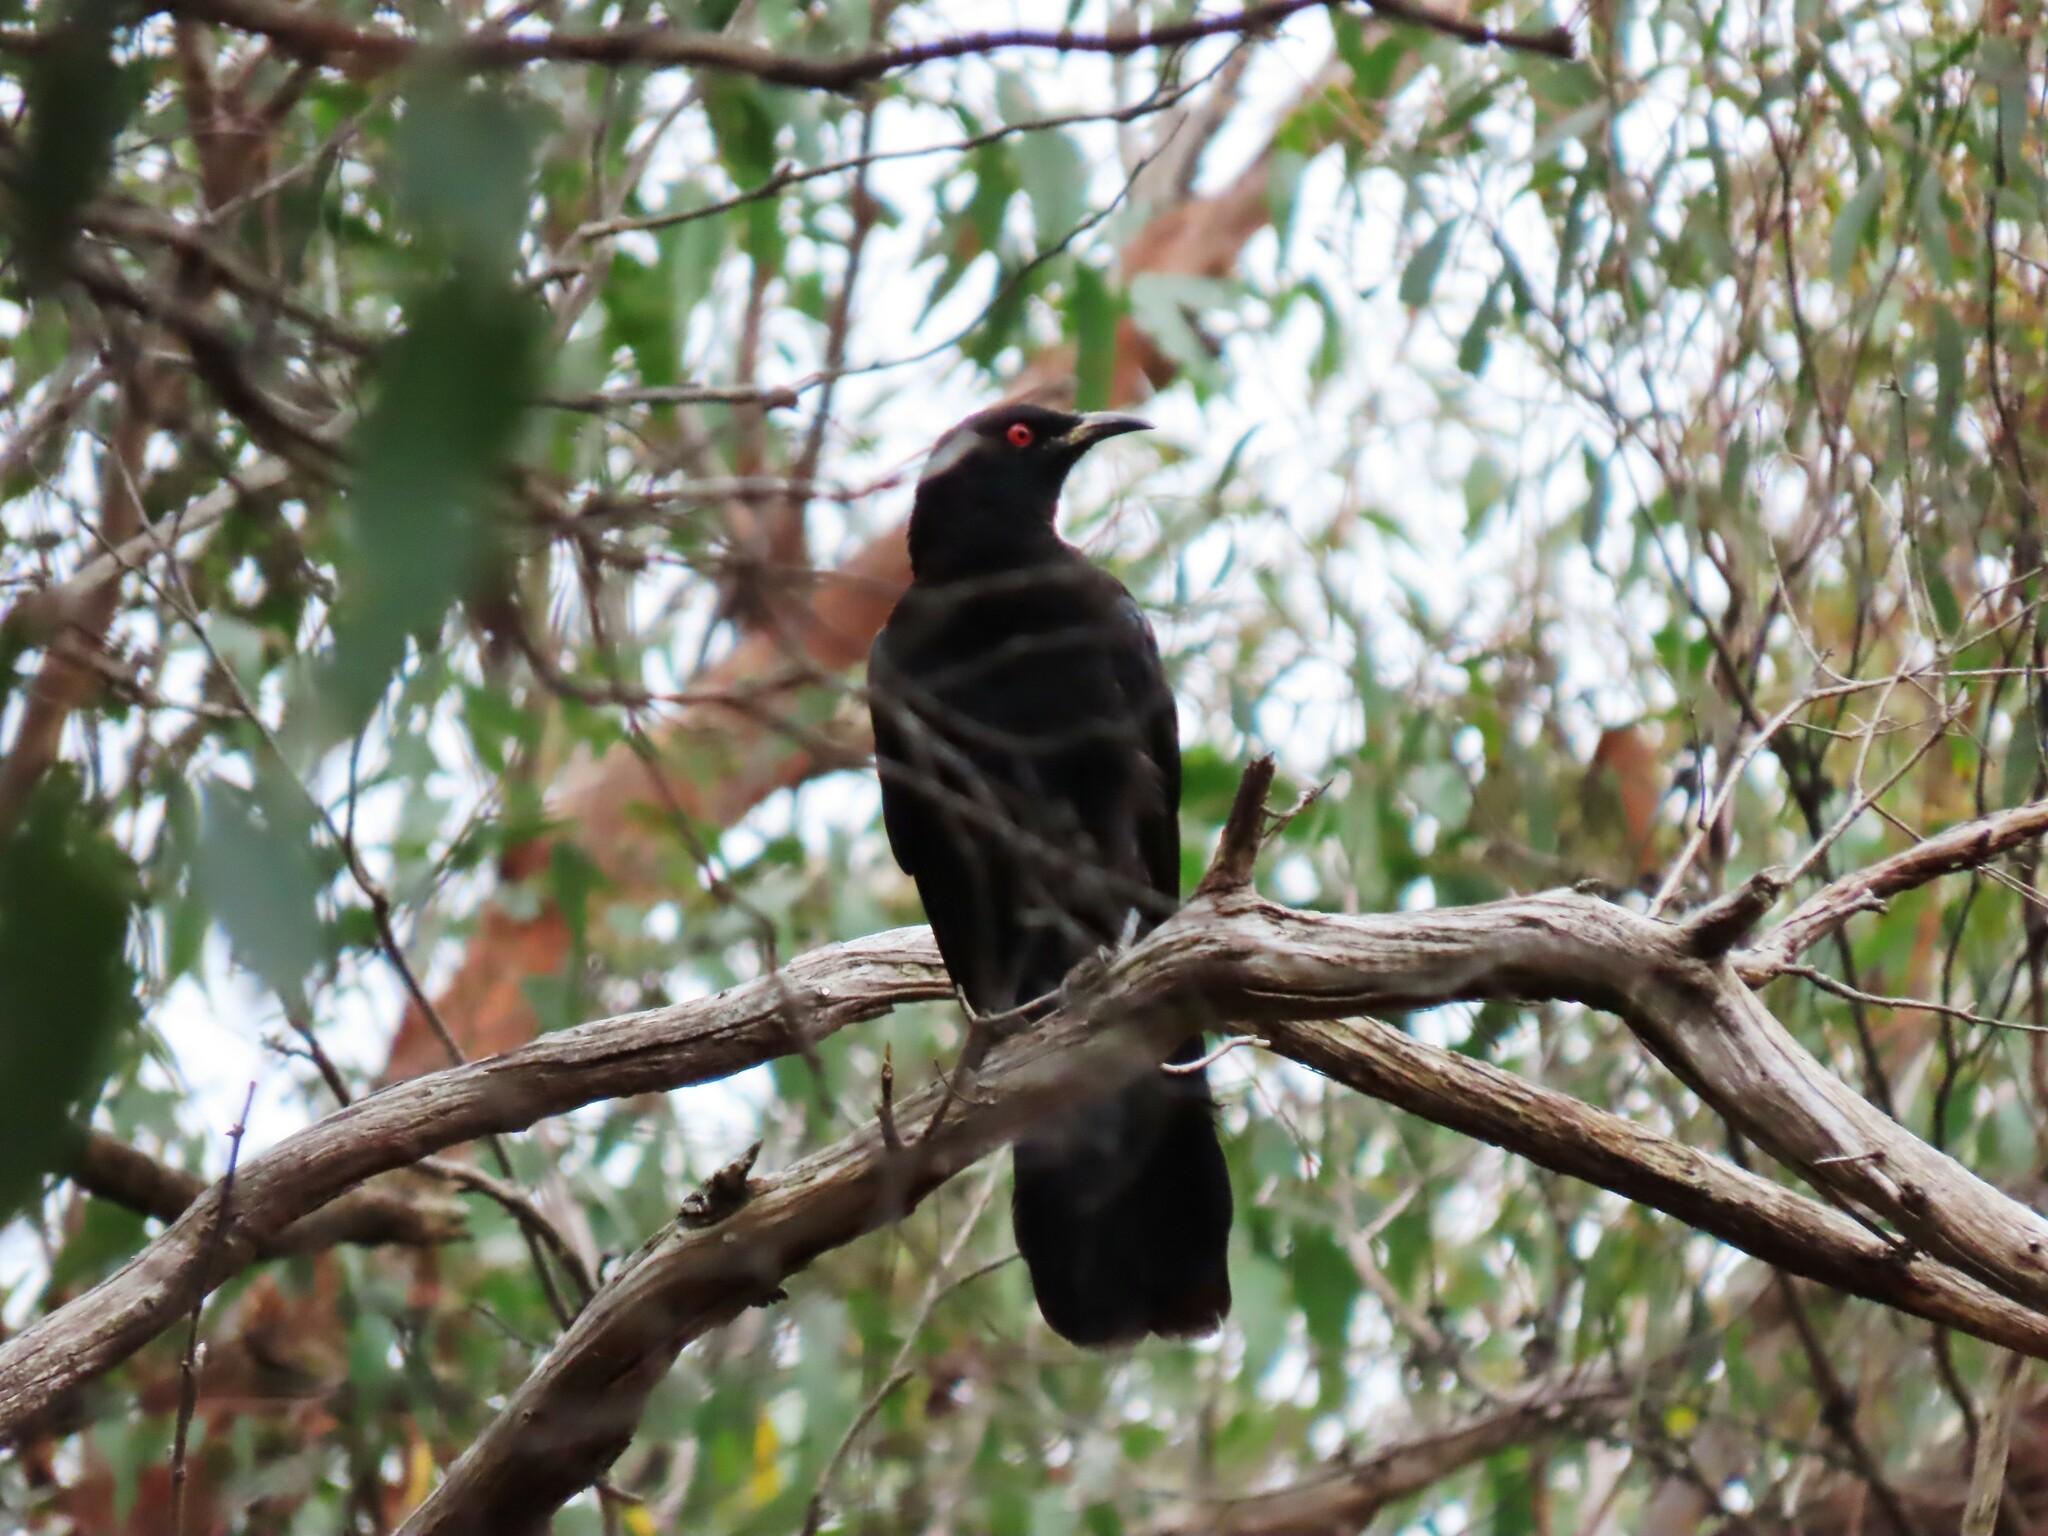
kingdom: Animalia
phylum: Chordata
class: Aves
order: Passeriformes
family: Corcoracidae
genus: Corcorax
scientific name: Corcorax melanoramphos
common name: White-winged chough
